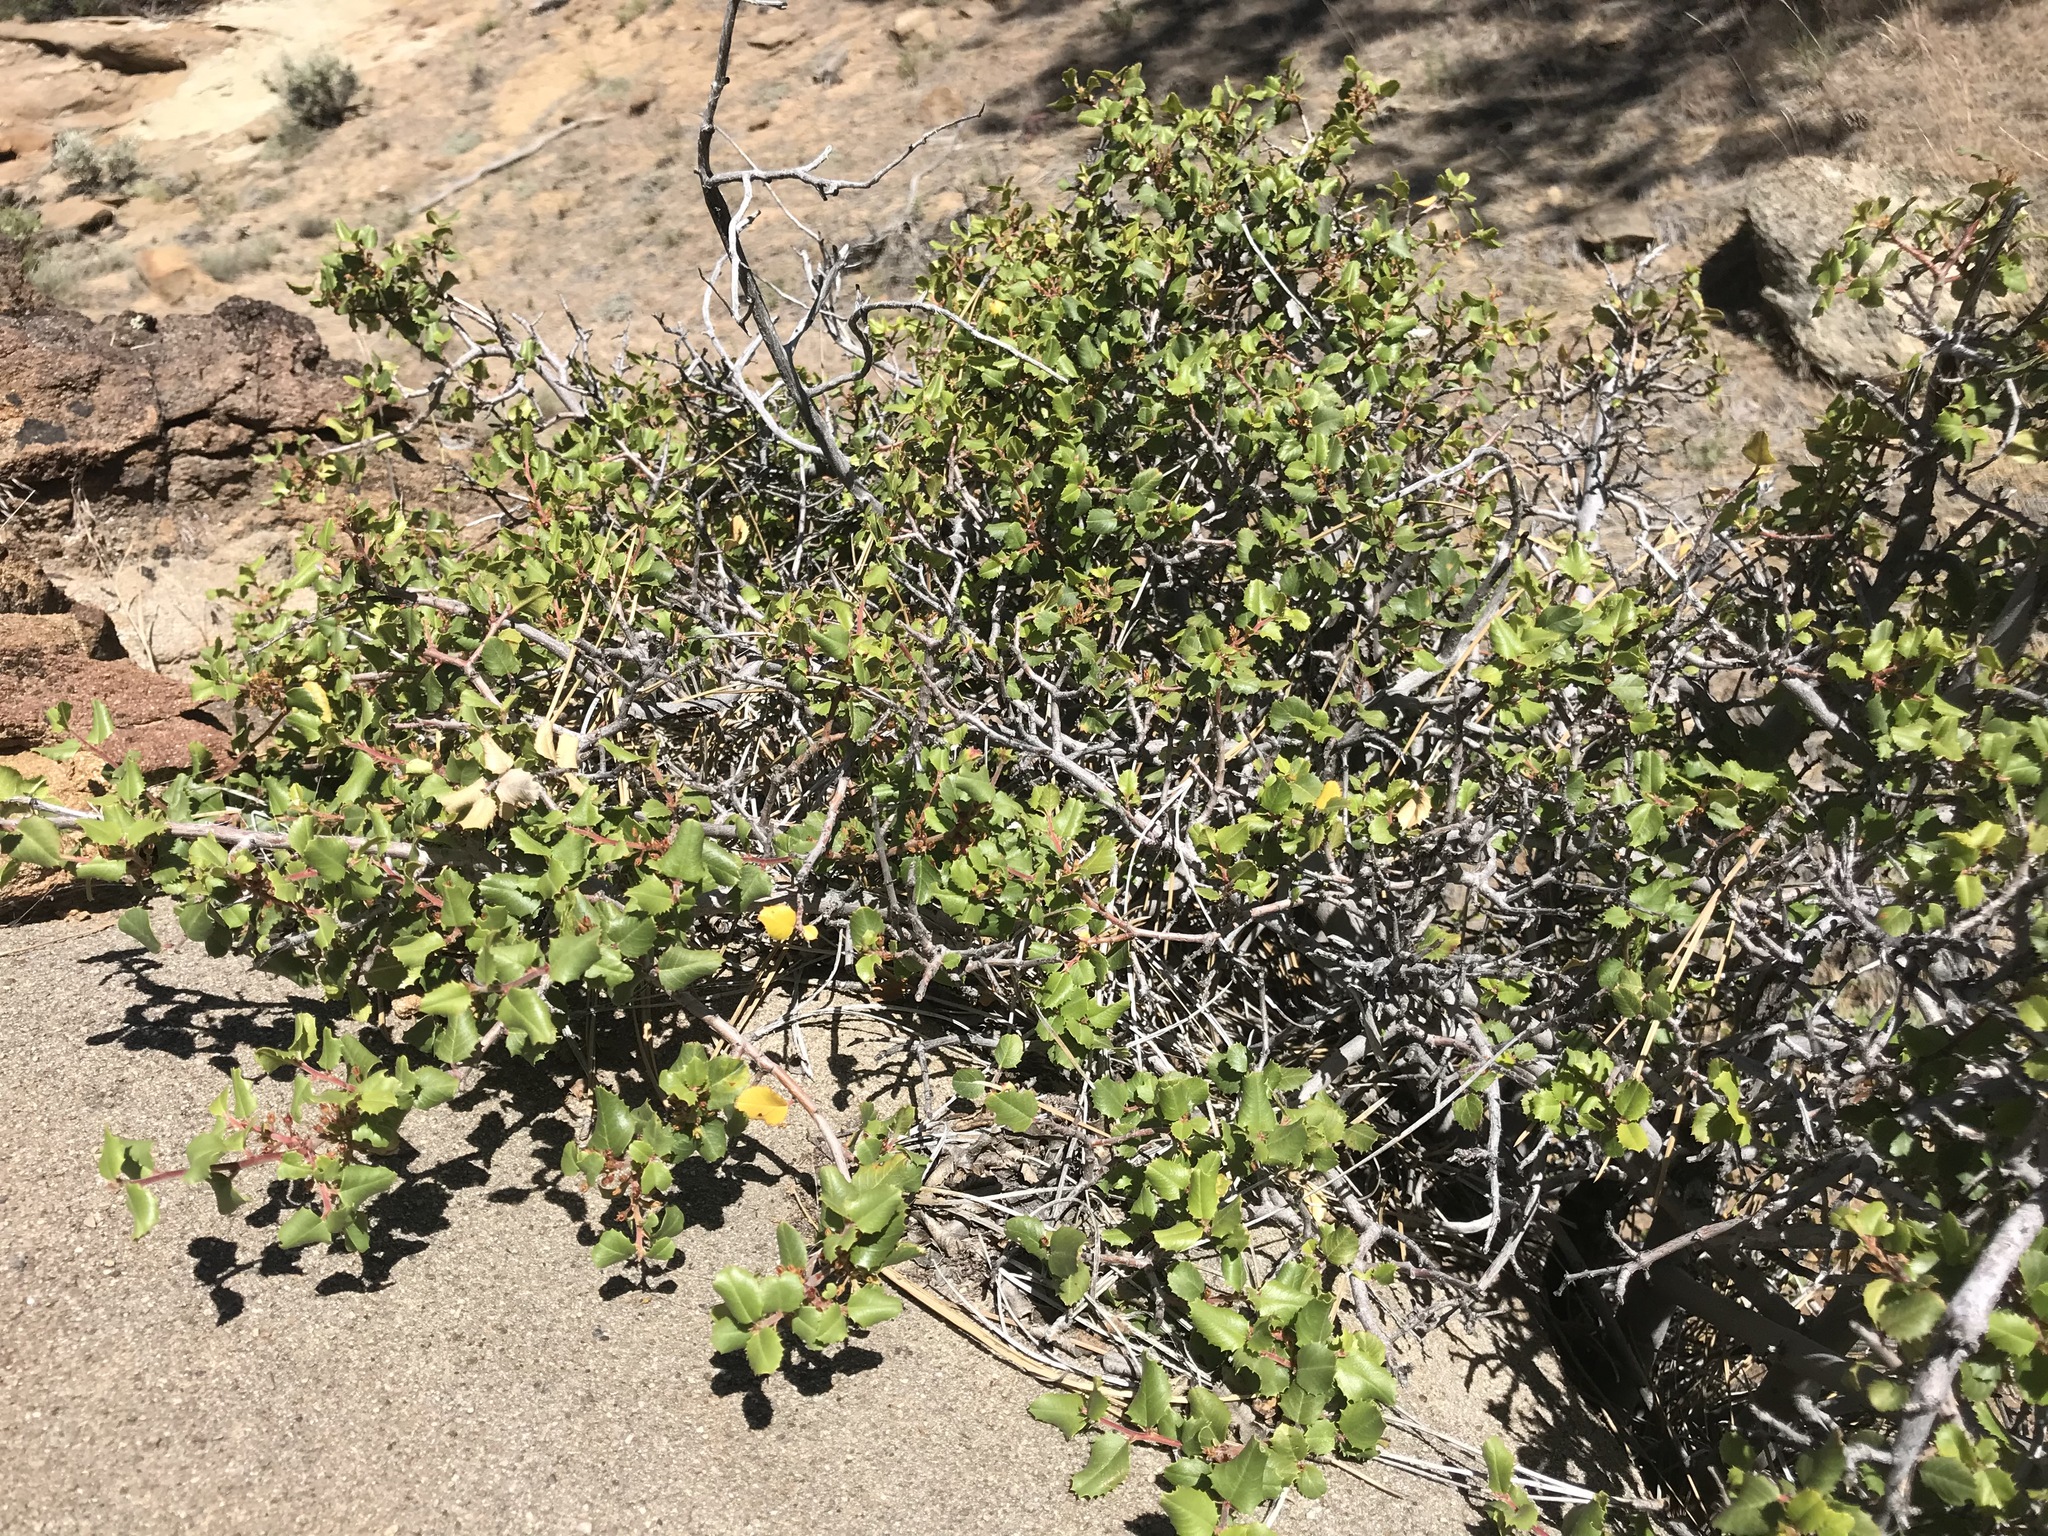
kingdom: Plantae
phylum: Tracheophyta
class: Magnoliopsida
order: Rosales
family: Rhamnaceae
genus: Endotropis
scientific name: Endotropis crocea
